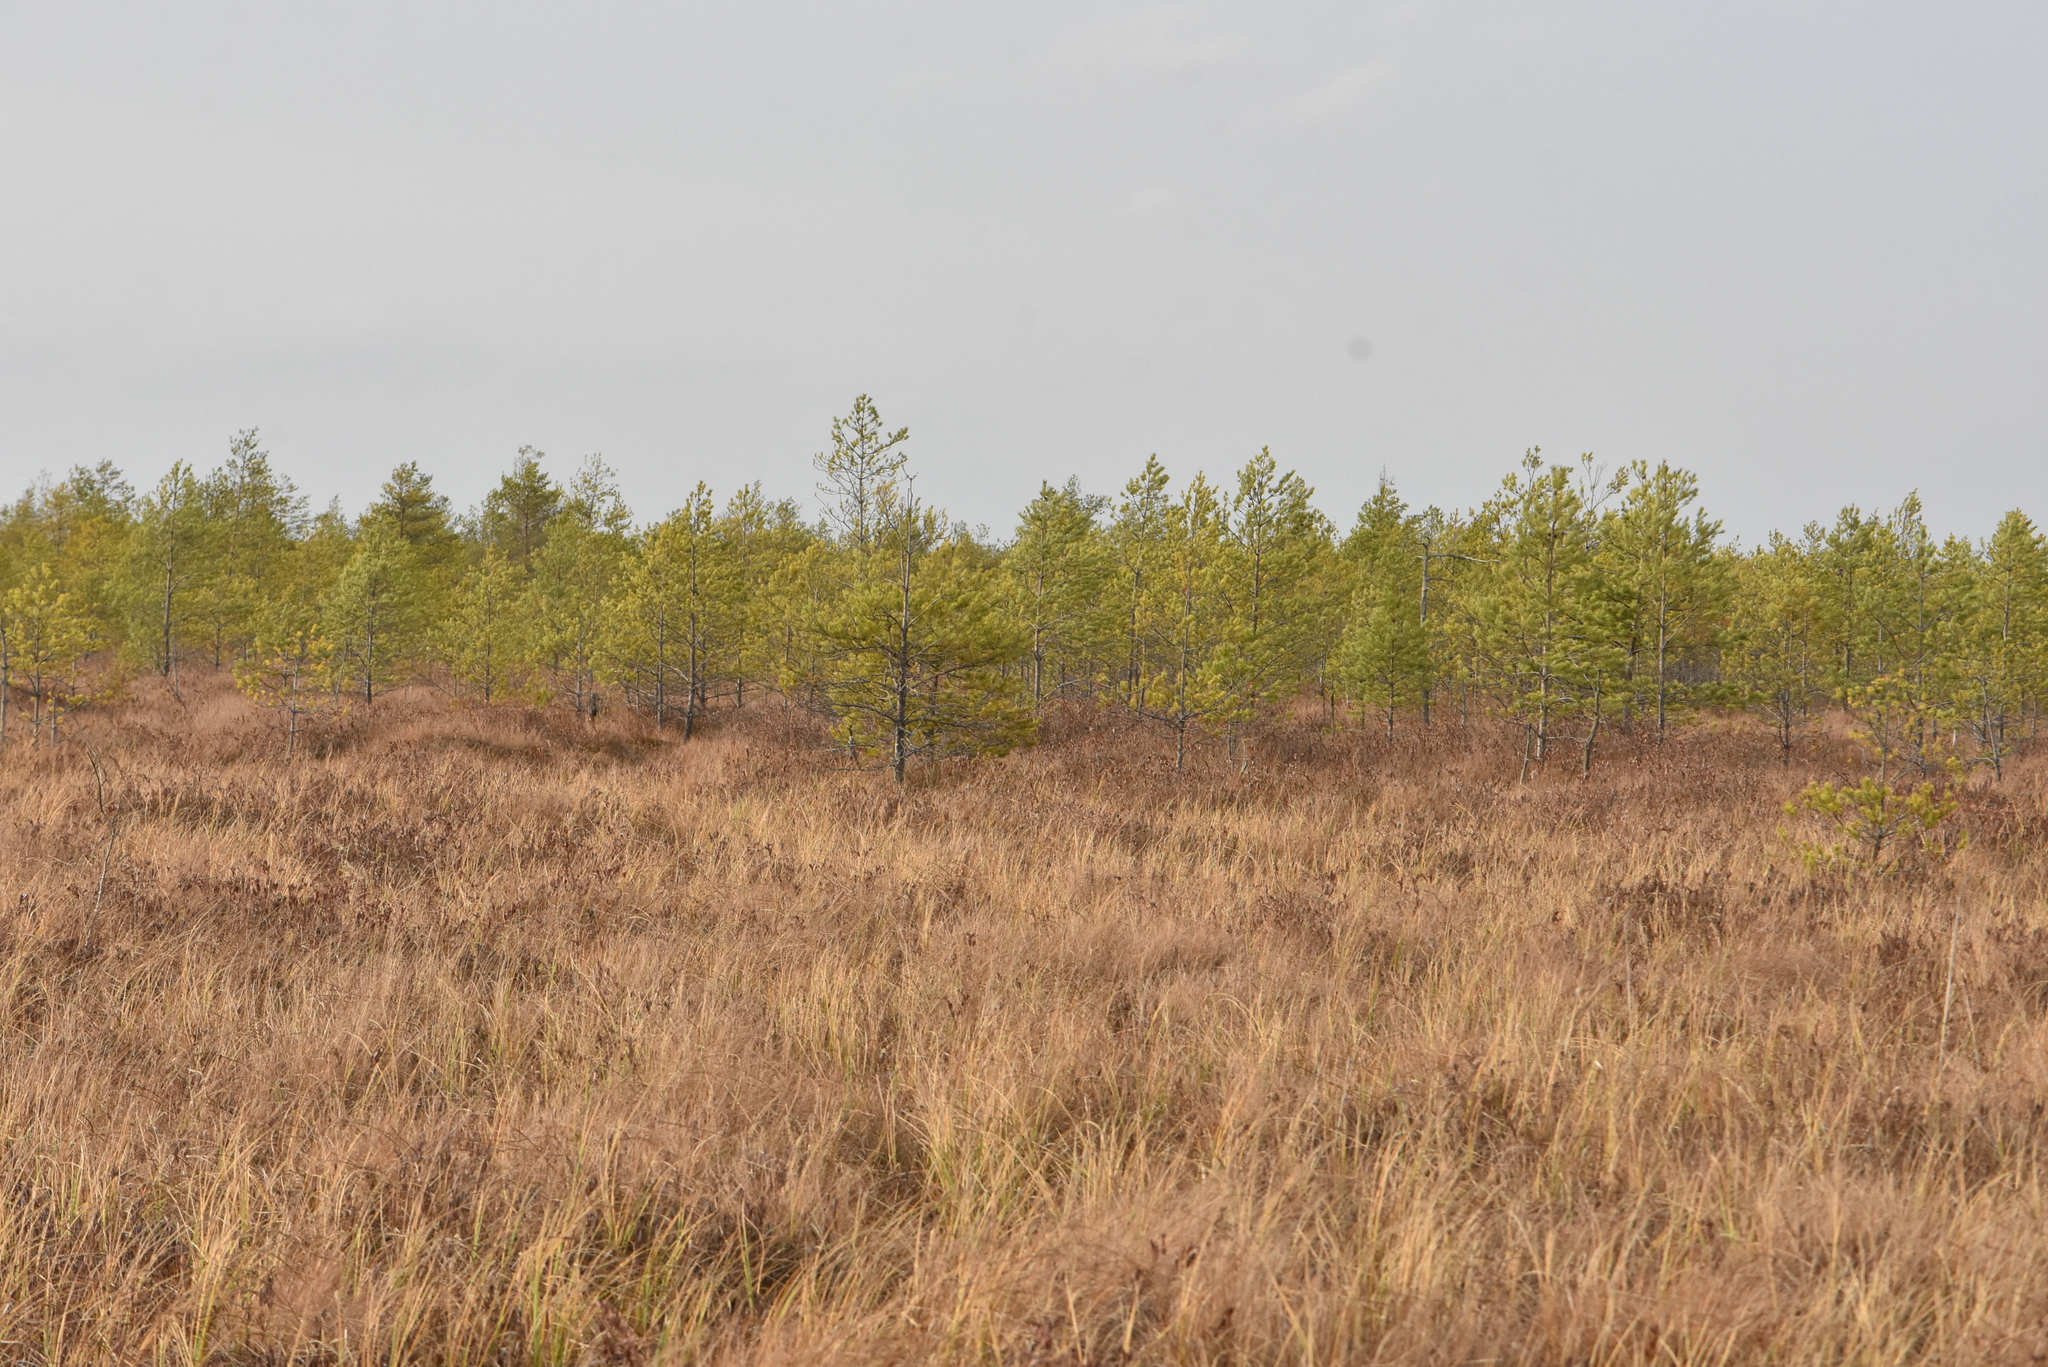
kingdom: Plantae
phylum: Tracheophyta
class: Pinopsida
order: Pinales
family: Pinaceae
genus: Pinus
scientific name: Pinus sylvestris
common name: Scots pine
